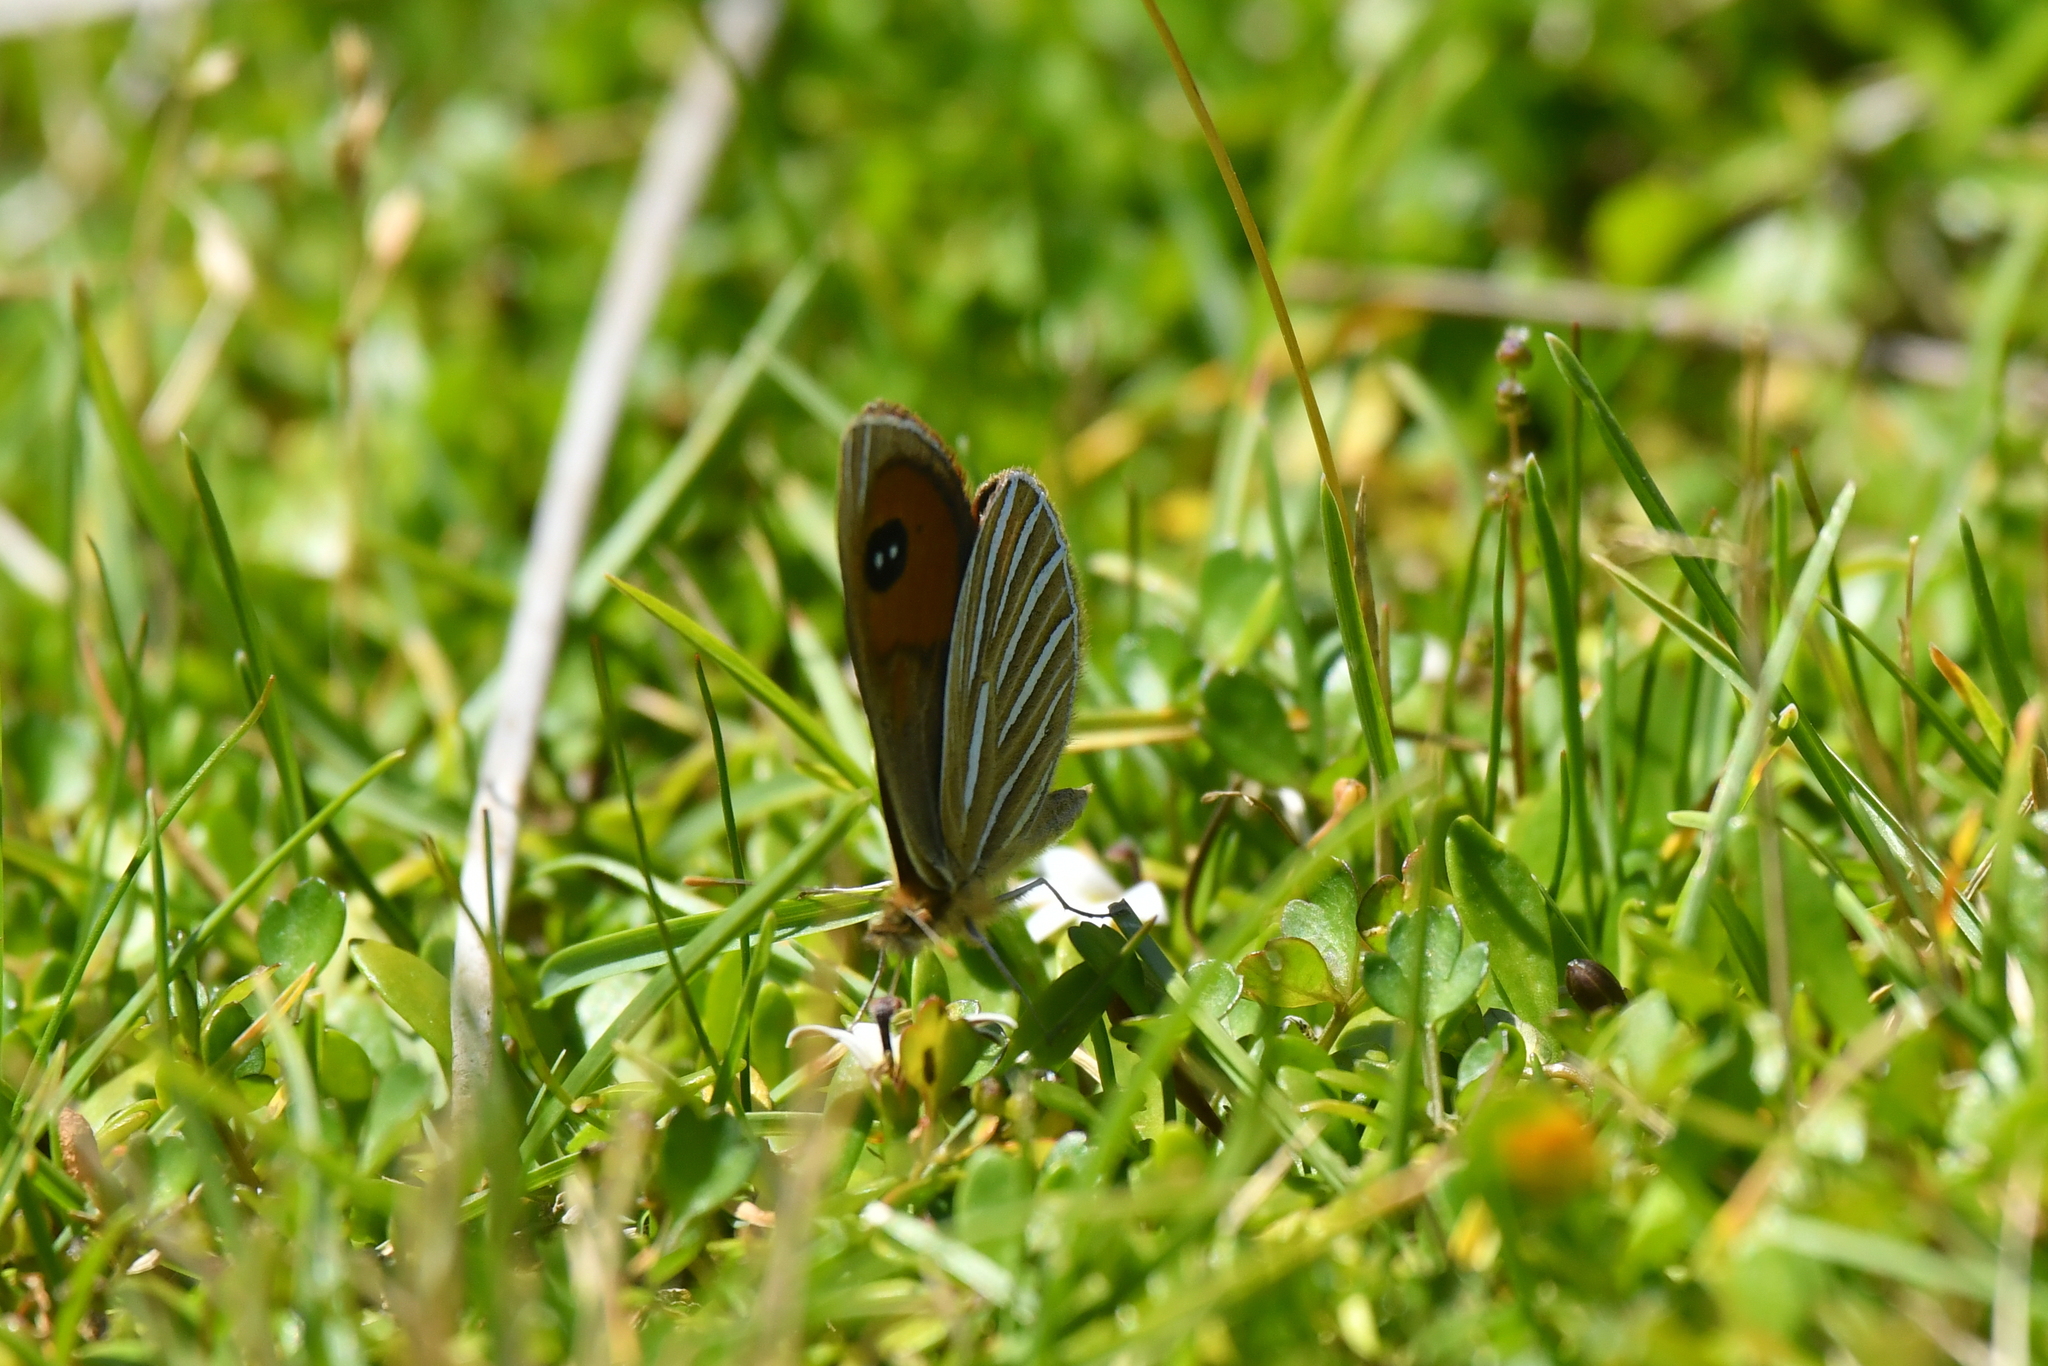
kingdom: Animalia
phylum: Arthropoda
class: Insecta
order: Lepidoptera
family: Nymphalidae
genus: Argyrophenga
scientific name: Argyrophenga antipodum
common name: Common tussock butterfly
